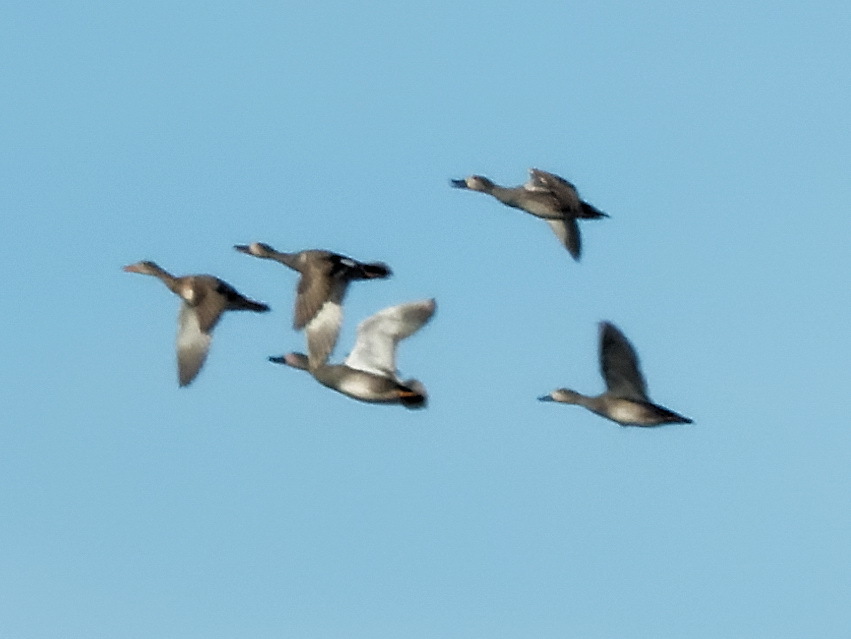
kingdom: Animalia
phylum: Chordata
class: Aves
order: Anseriformes
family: Anatidae
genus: Mareca
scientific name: Mareca strepera
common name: Gadwall
